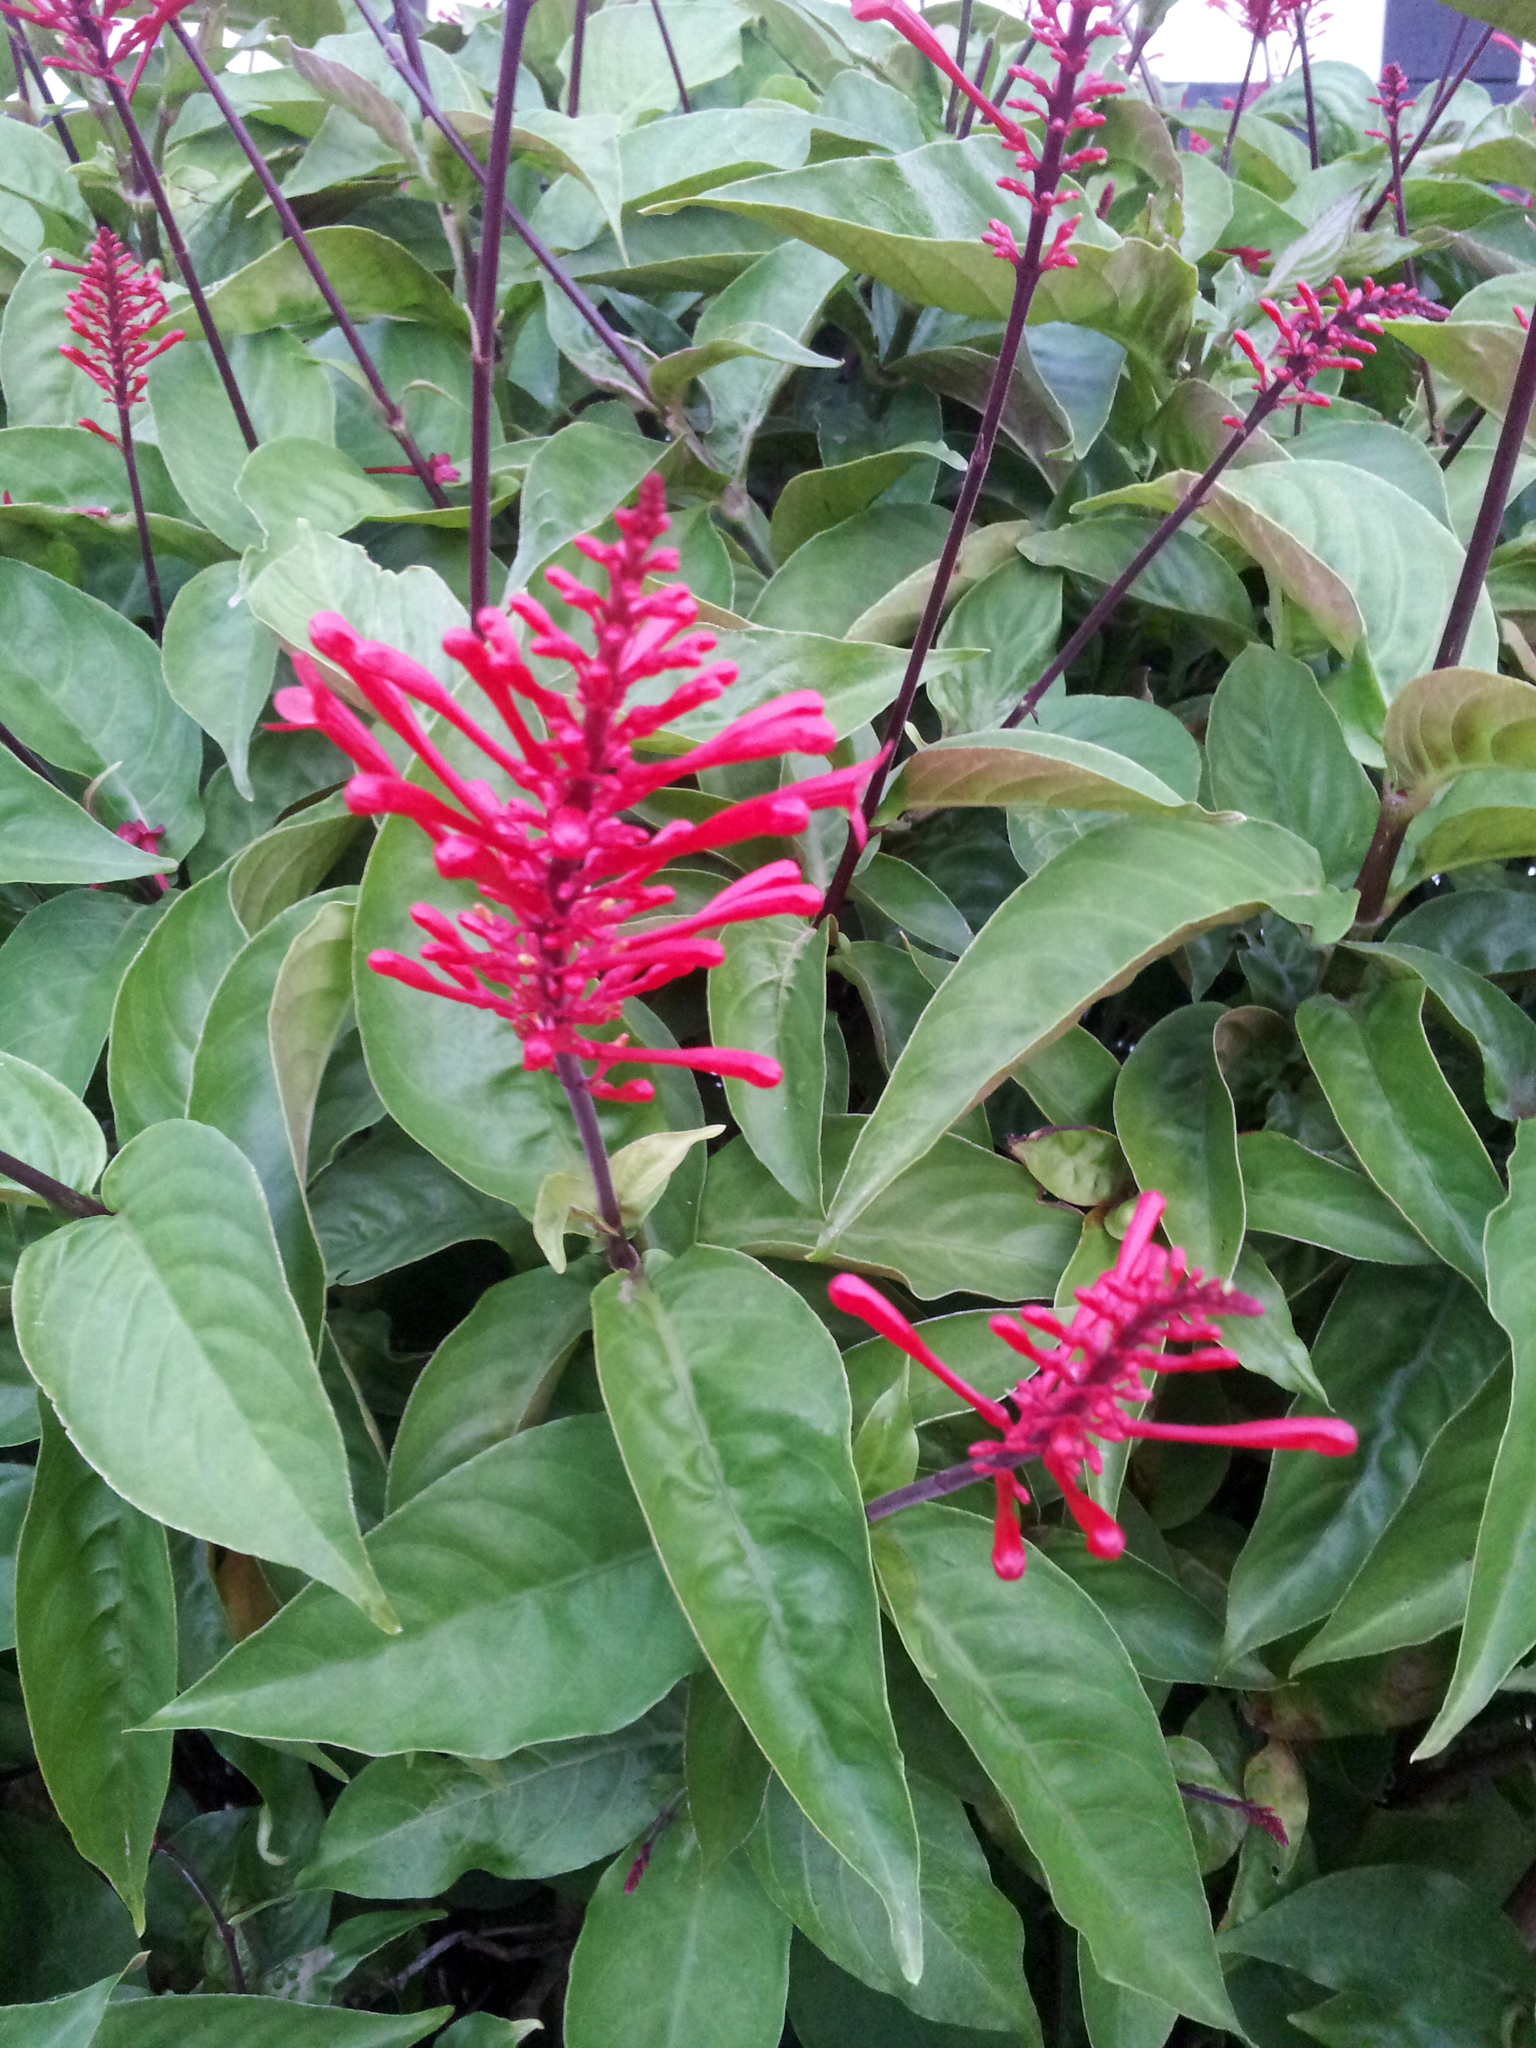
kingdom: Plantae
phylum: Tracheophyta
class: Magnoliopsida
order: Lamiales
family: Acanthaceae
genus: Odontonema
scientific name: Odontonema tubaeforme
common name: Firespike
